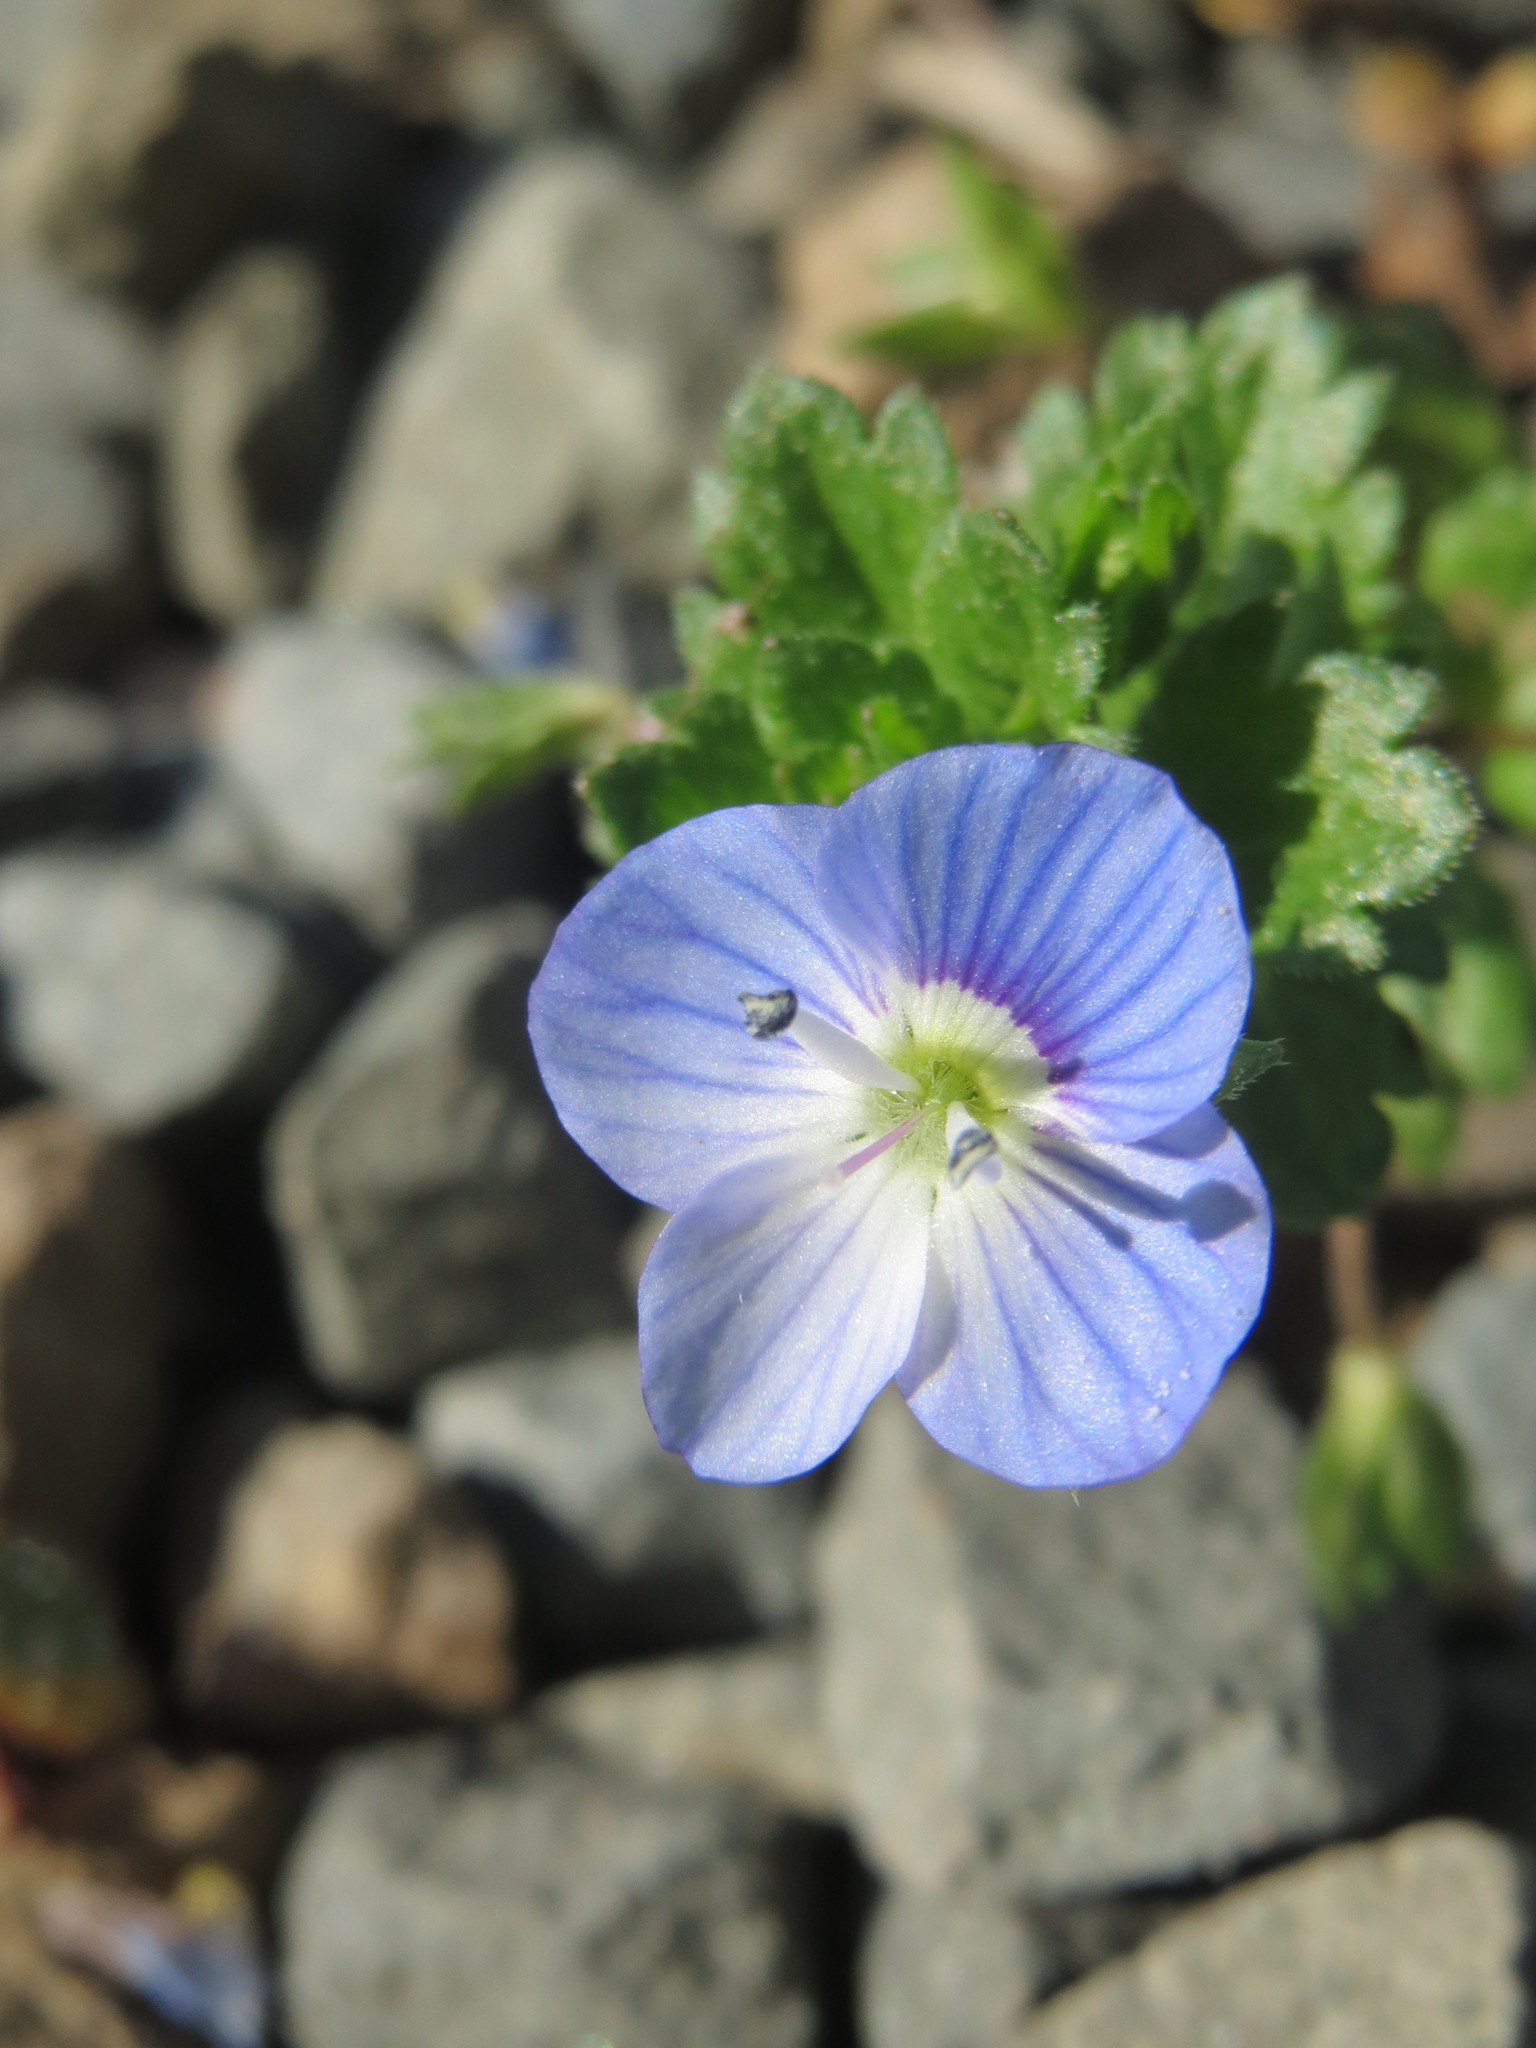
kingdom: Plantae
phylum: Tracheophyta
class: Magnoliopsida
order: Lamiales
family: Plantaginaceae
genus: Veronica
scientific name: Veronica persica
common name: Common field-speedwell
